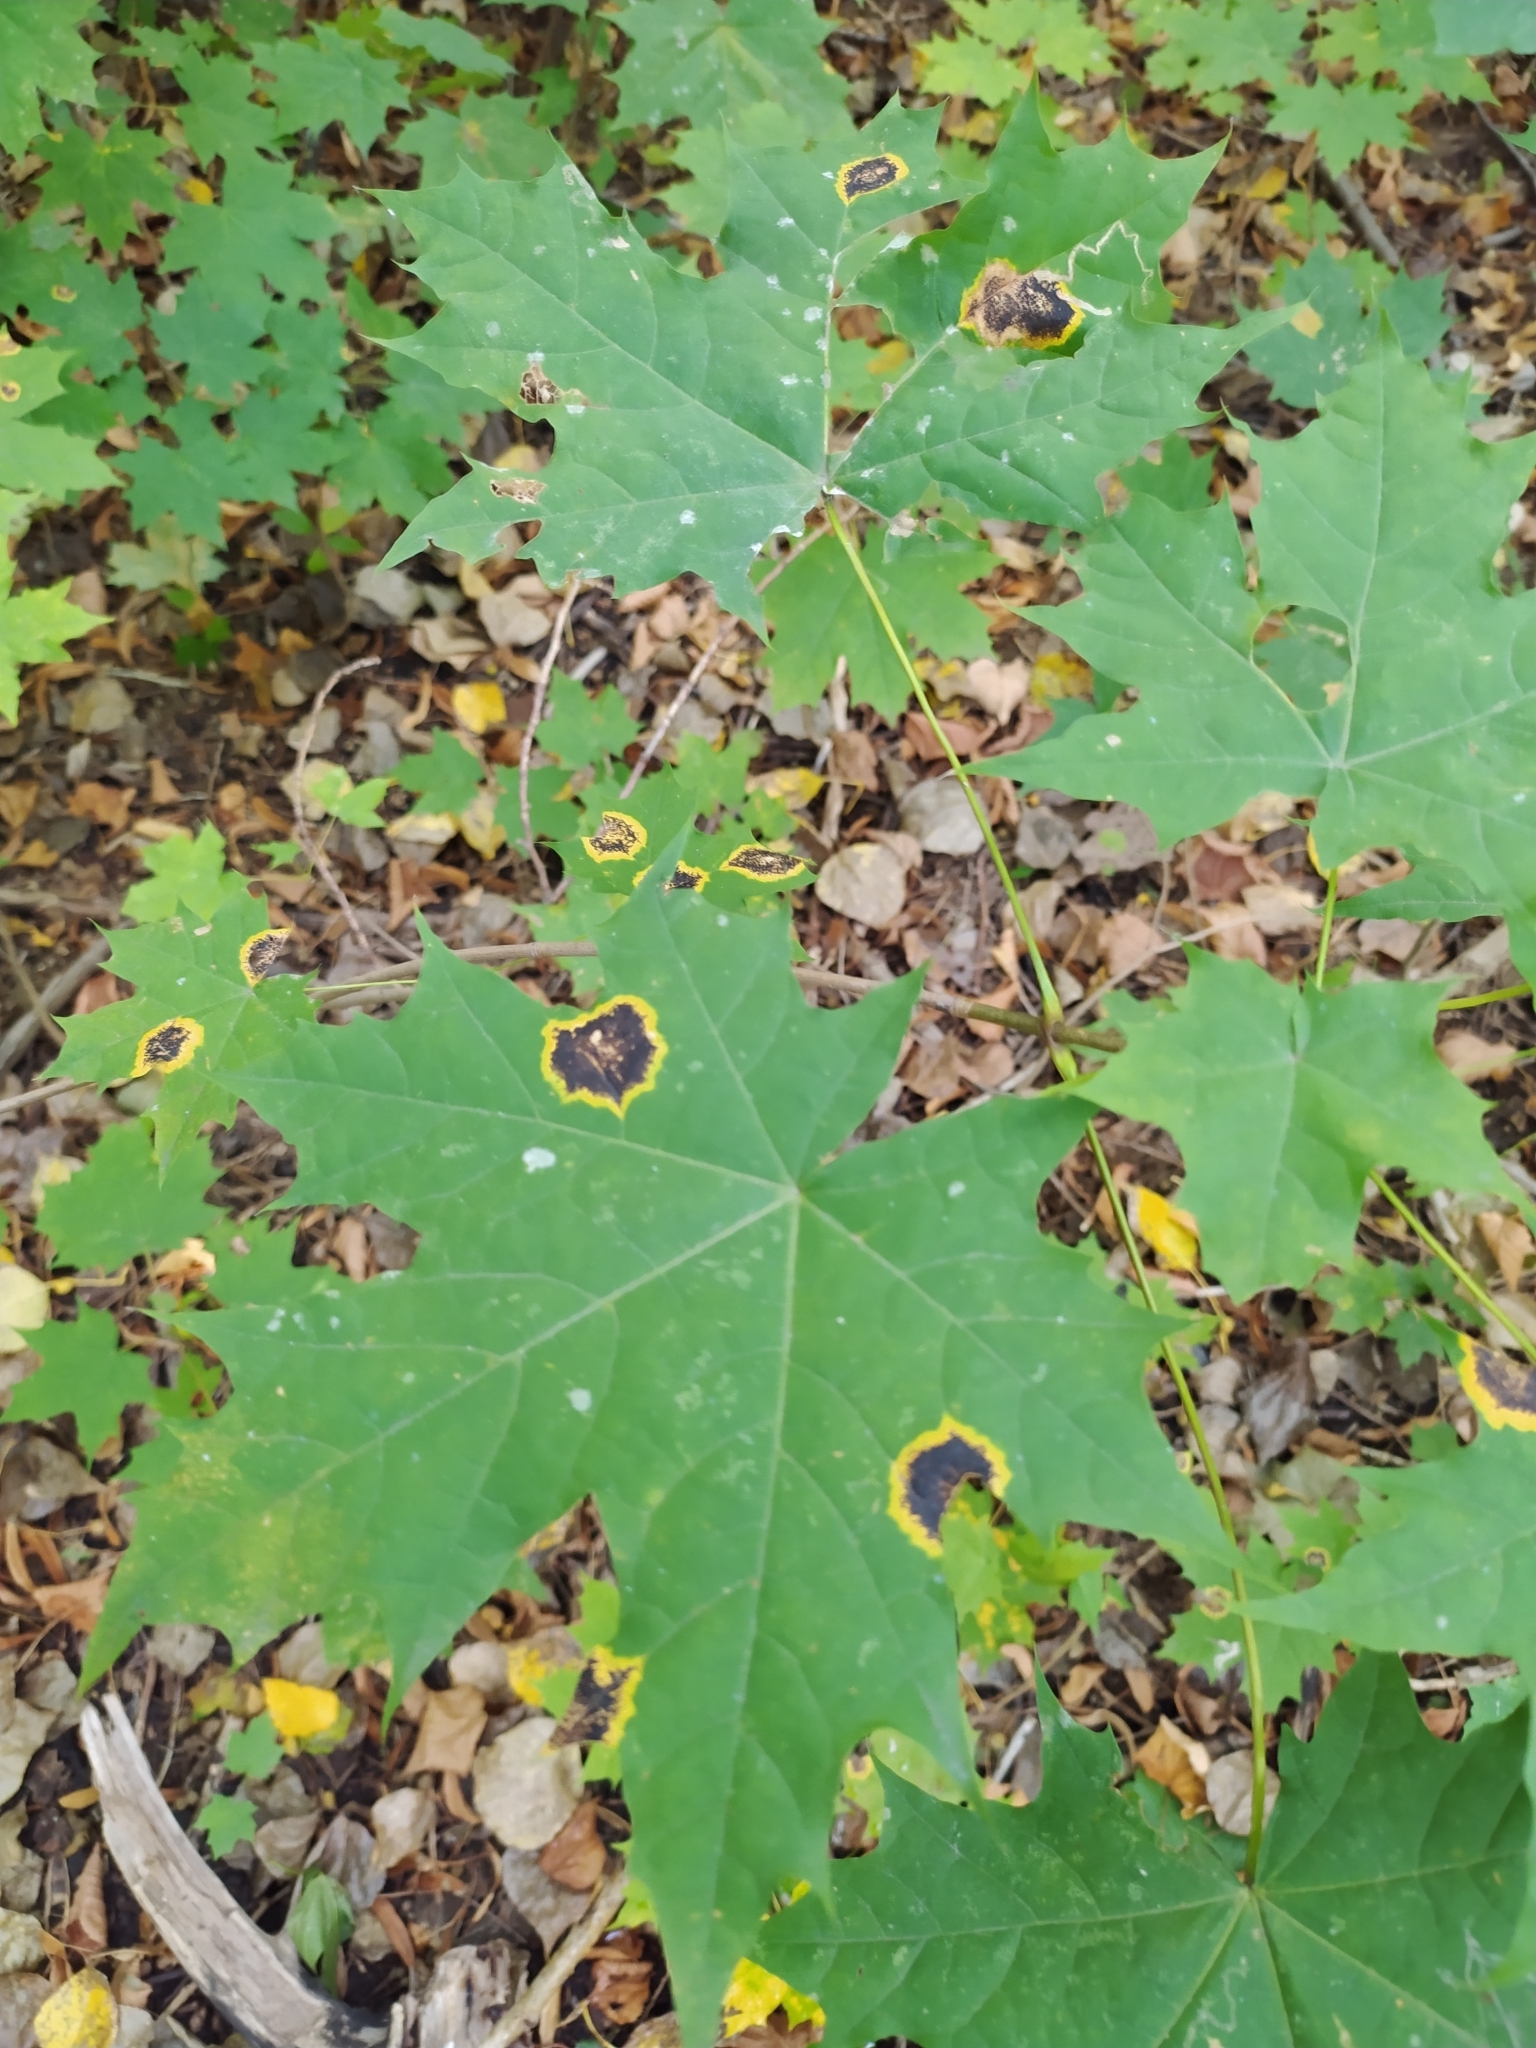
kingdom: Fungi
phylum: Ascomycota
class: Leotiomycetes
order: Rhytismatales
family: Rhytismataceae
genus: Rhytisma
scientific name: Rhytisma acerinum
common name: European tar spot
